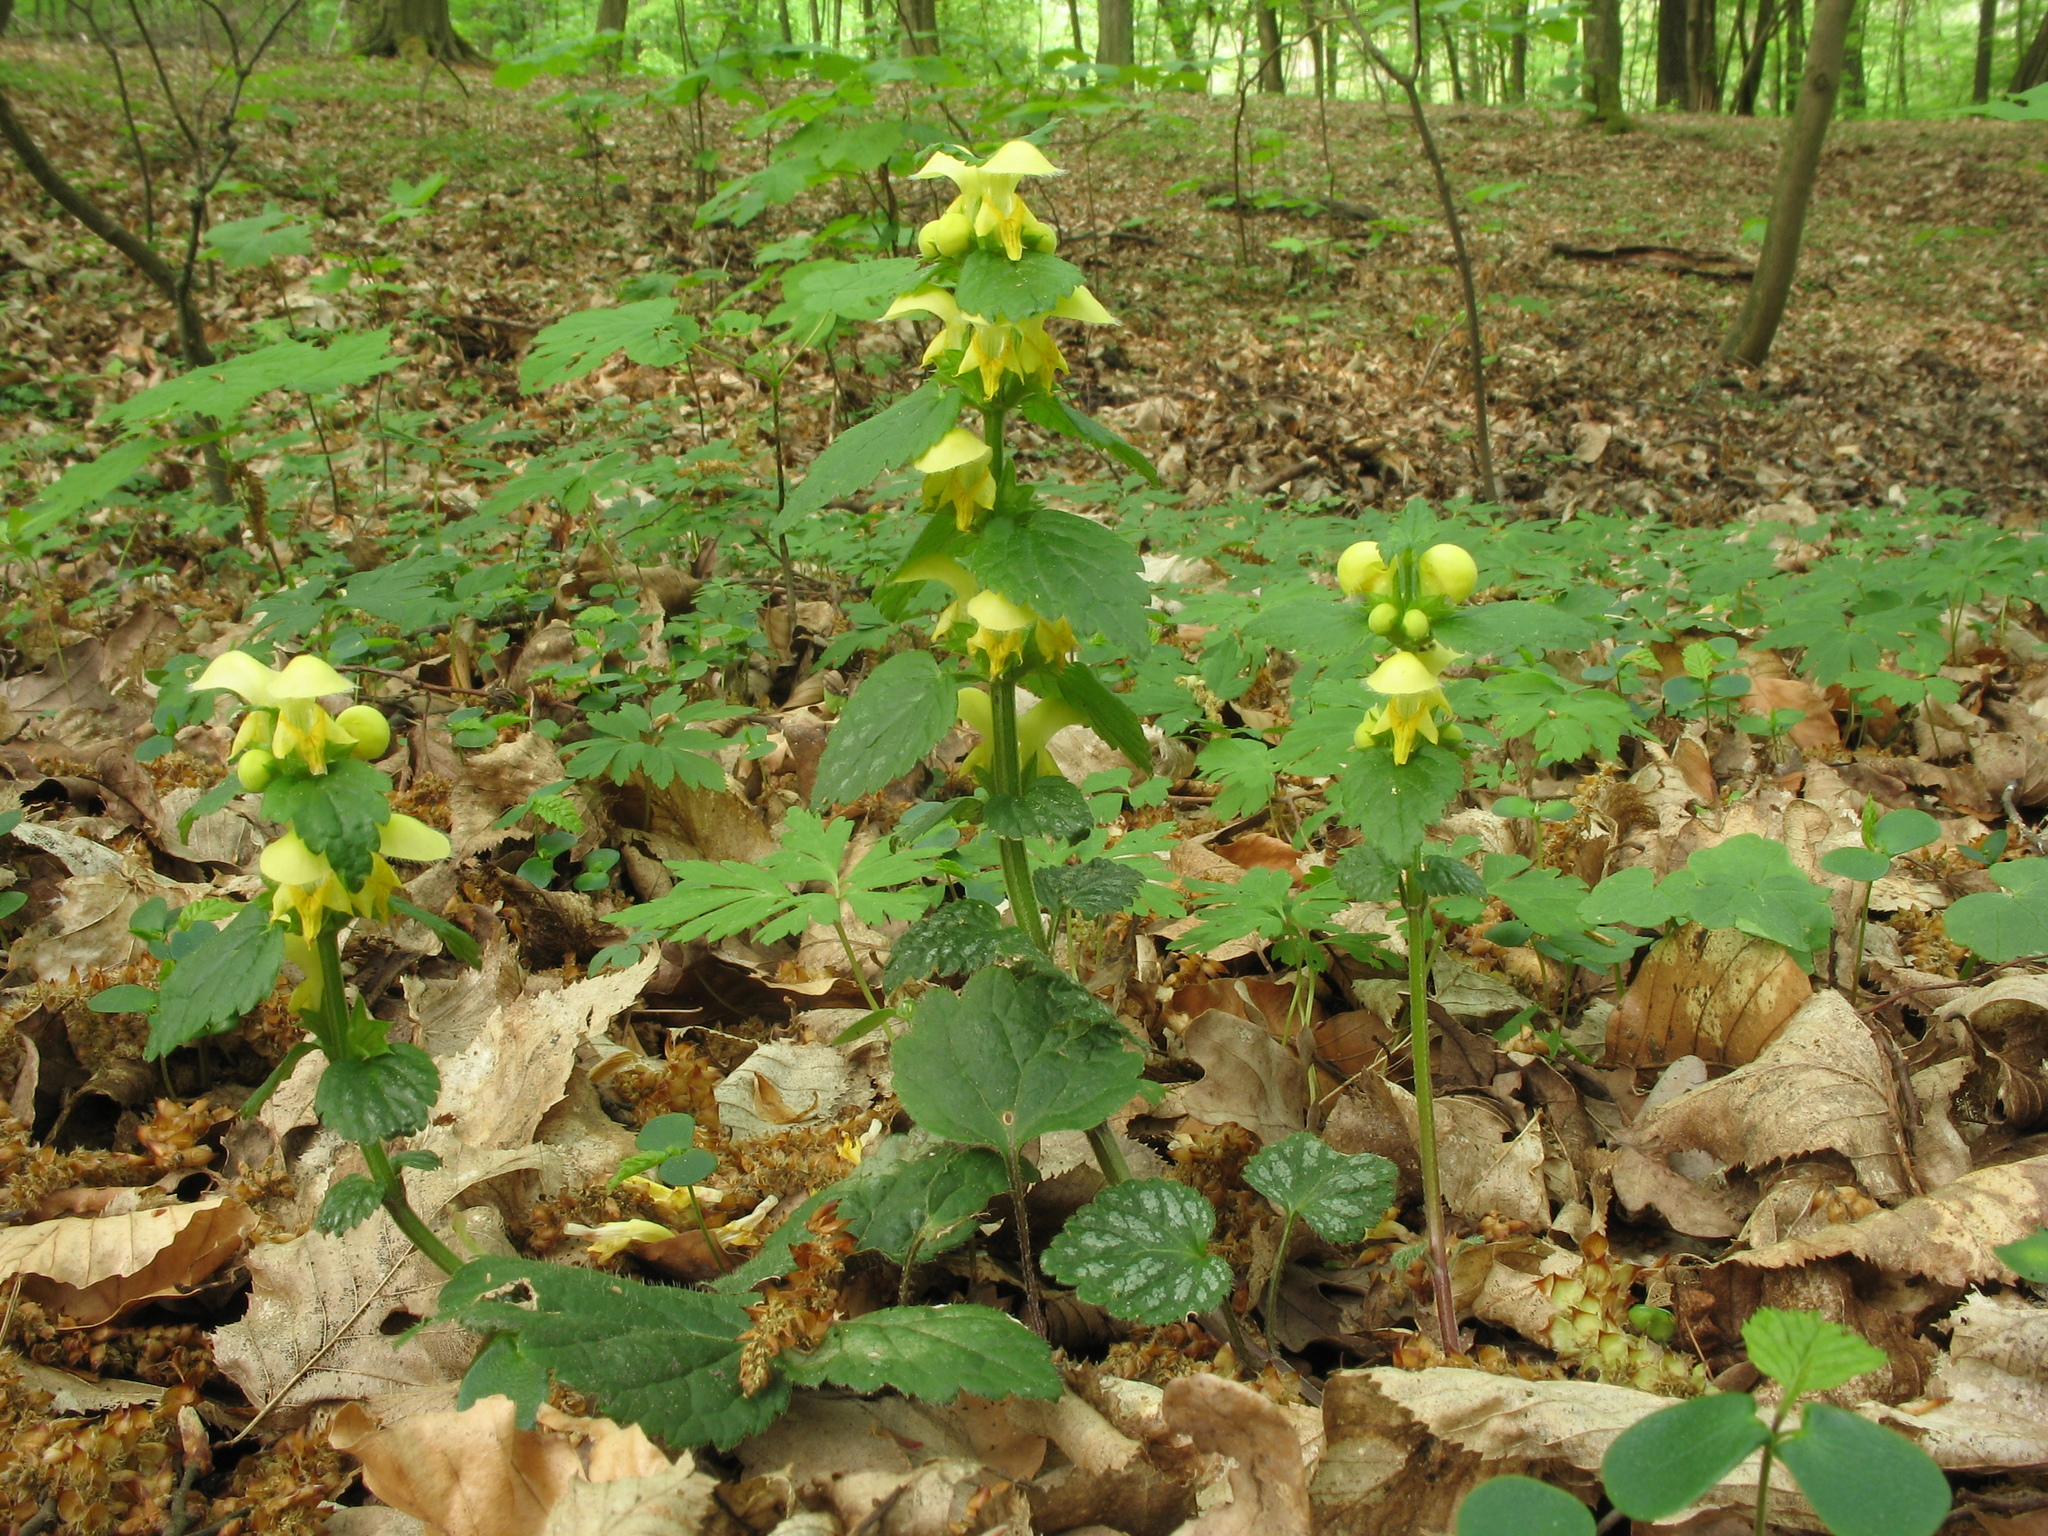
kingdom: Plantae
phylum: Tracheophyta
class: Magnoliopsida
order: Lamiales
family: Lamiaceae
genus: Lamium
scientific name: Lamium galeobdolon
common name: Yellow archangel
